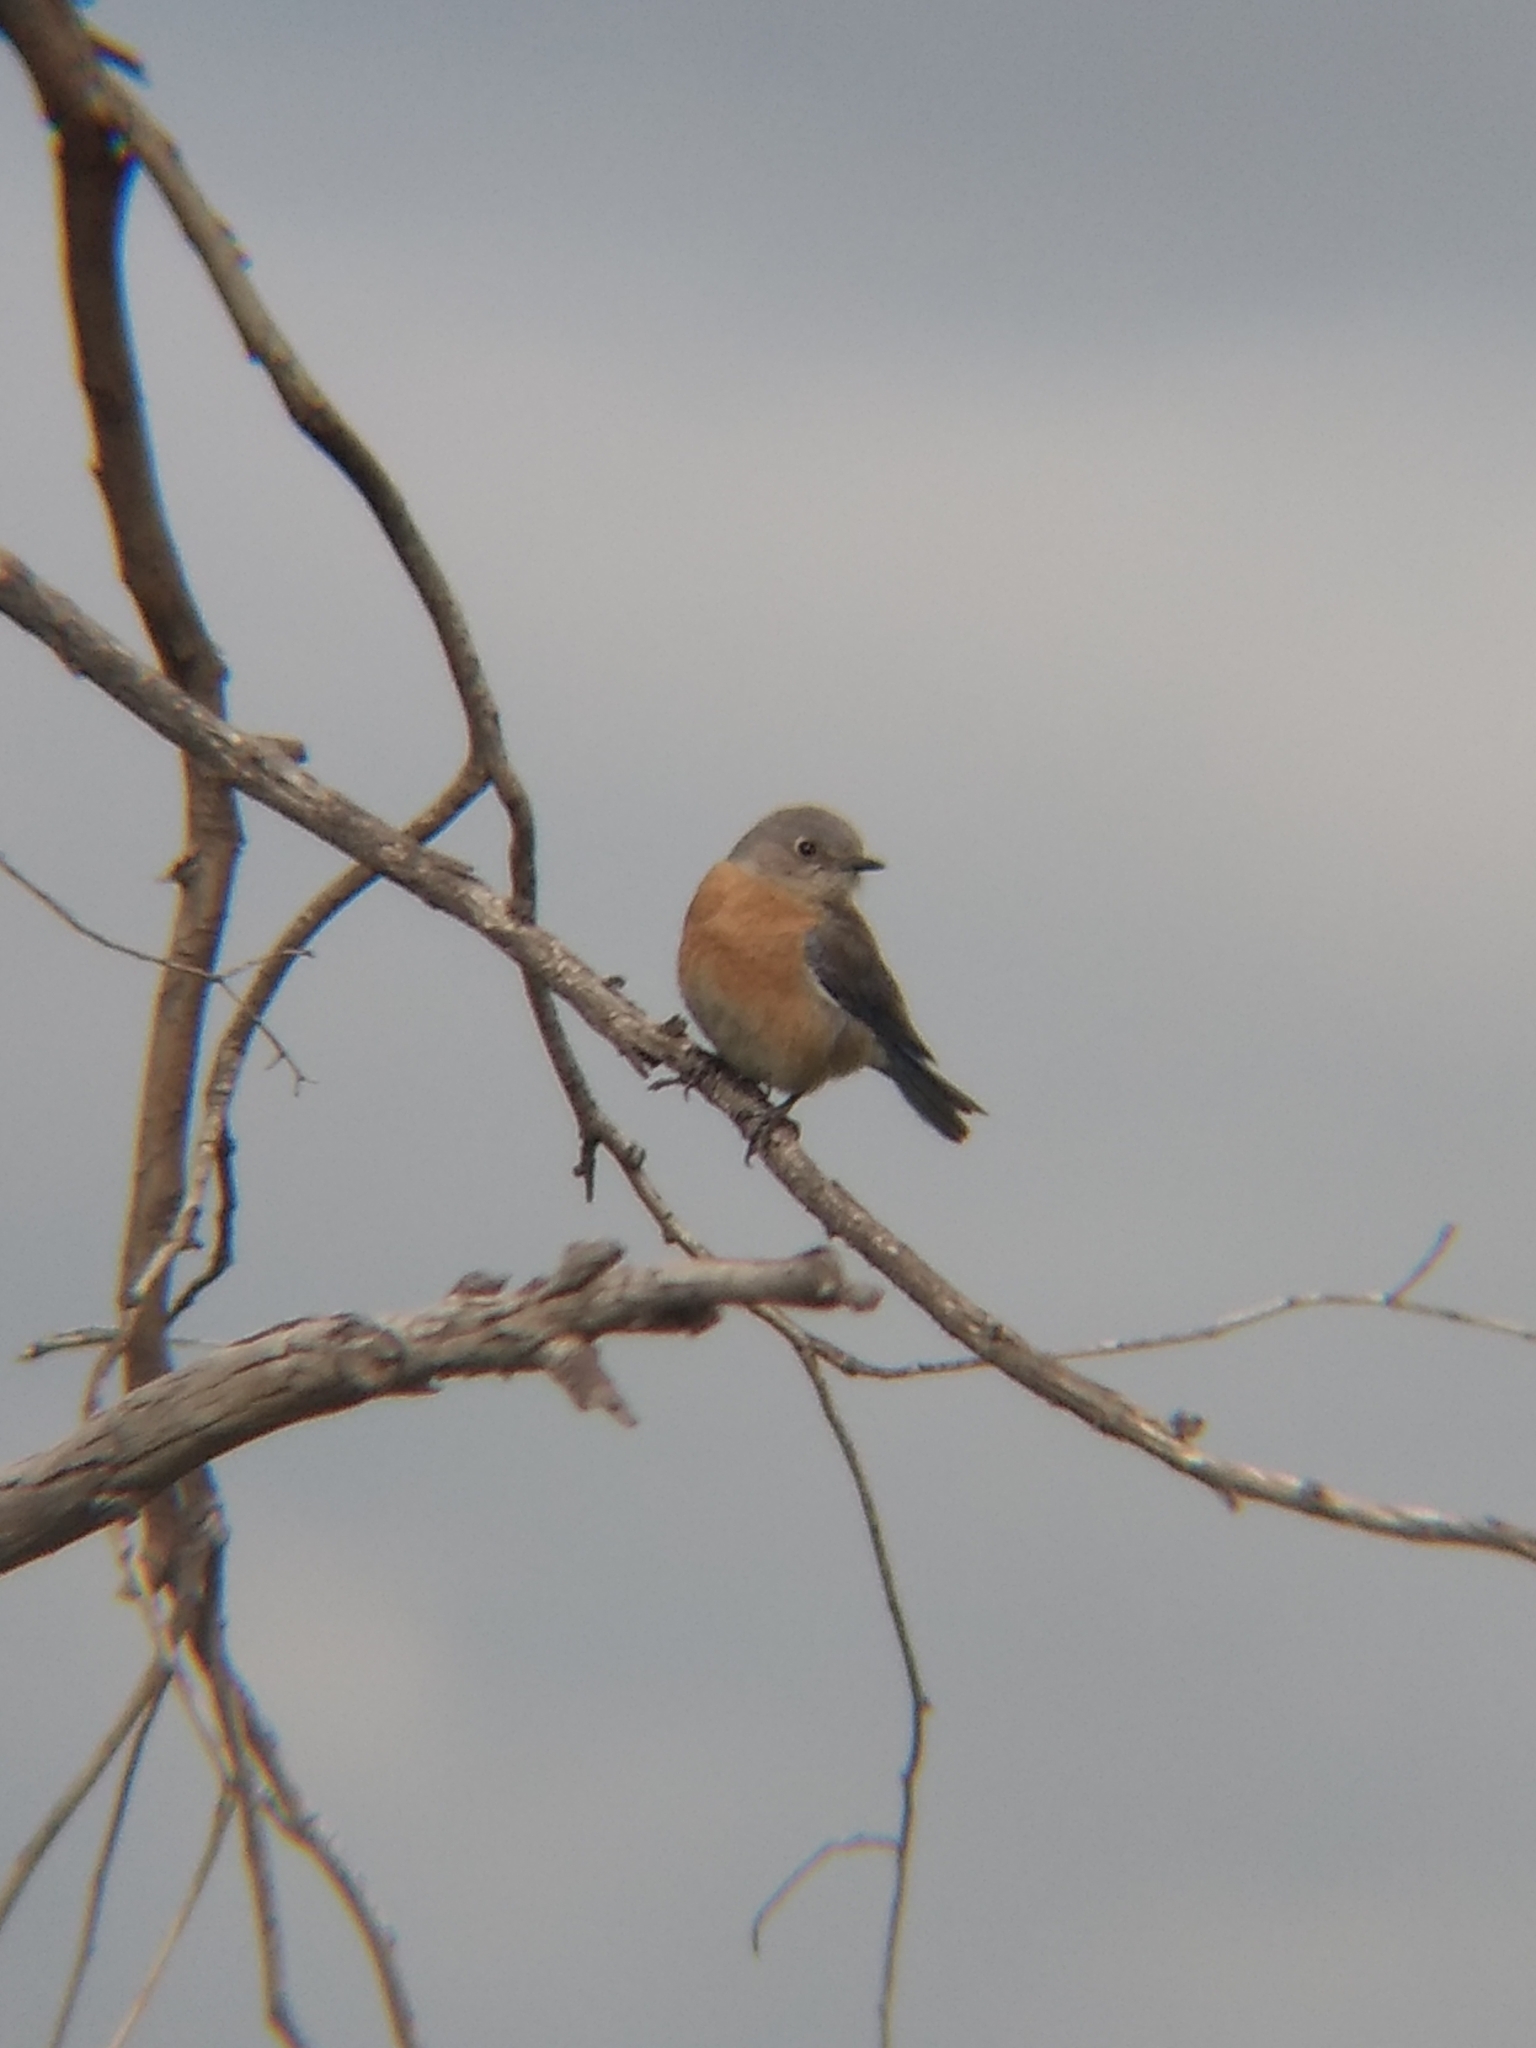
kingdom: Animalia
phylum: Chordata
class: Aves
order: Passeriformes
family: Turdidae
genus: Sialia
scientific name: Sialia mexicana
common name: Western bluebird
